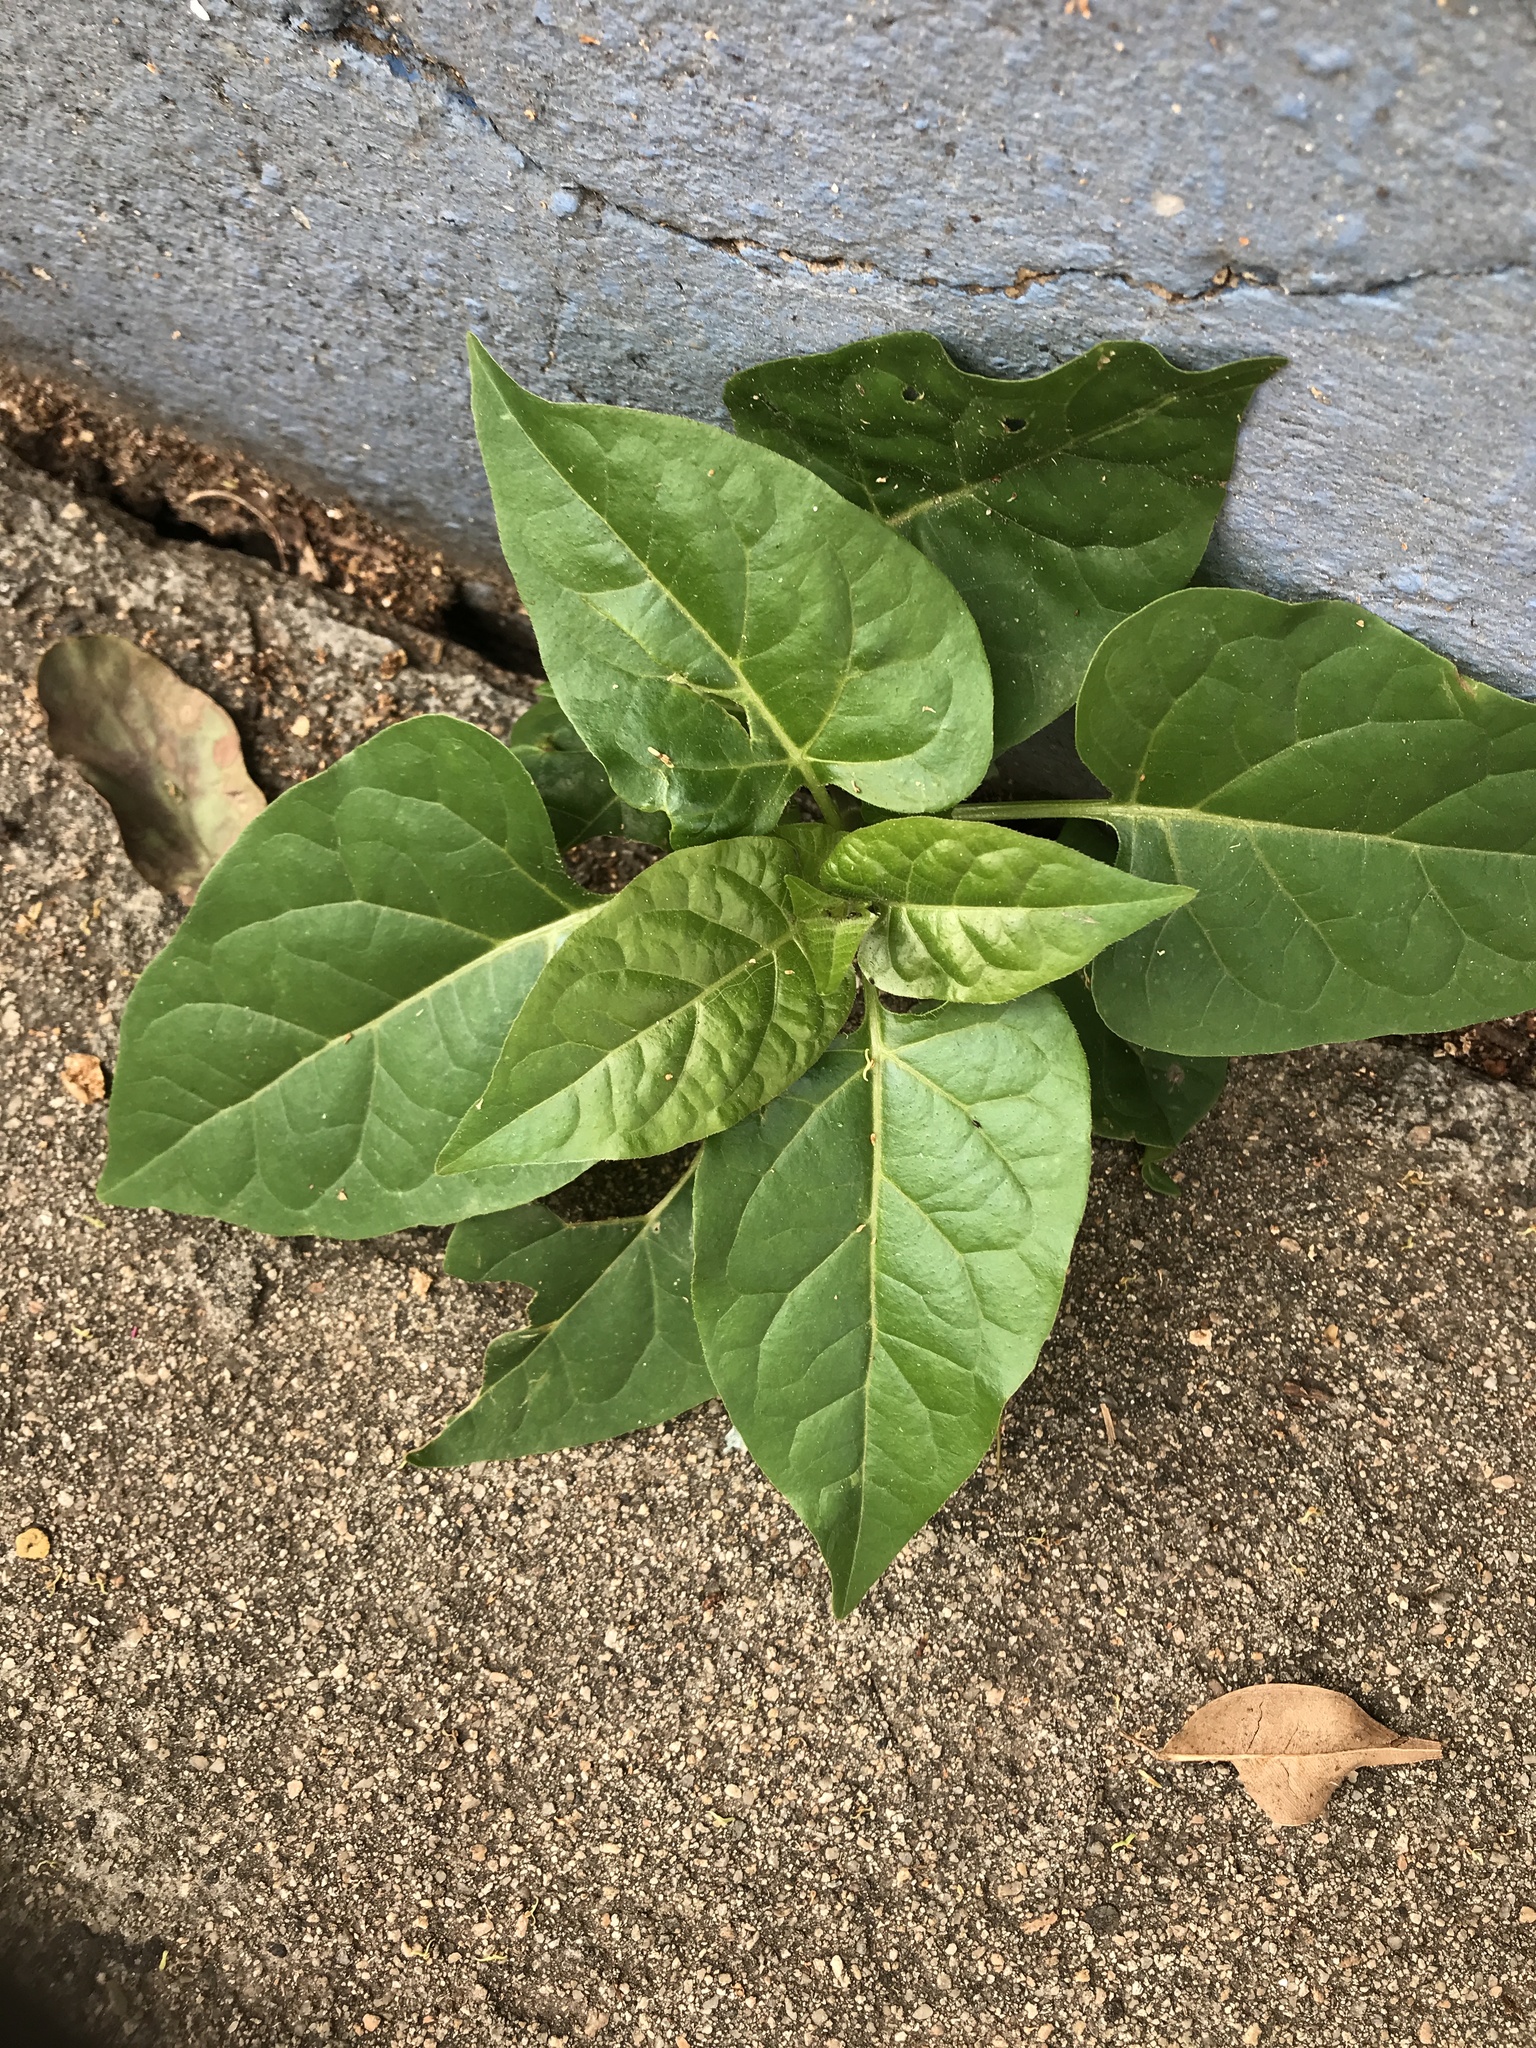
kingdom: Plantae
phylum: Tracheophyta
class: Magnoliopsida
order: Caryophyllales
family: Nyctaginaceae
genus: Mirabilis
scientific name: Mirabilis jalapa
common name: Marvel-of-peru
